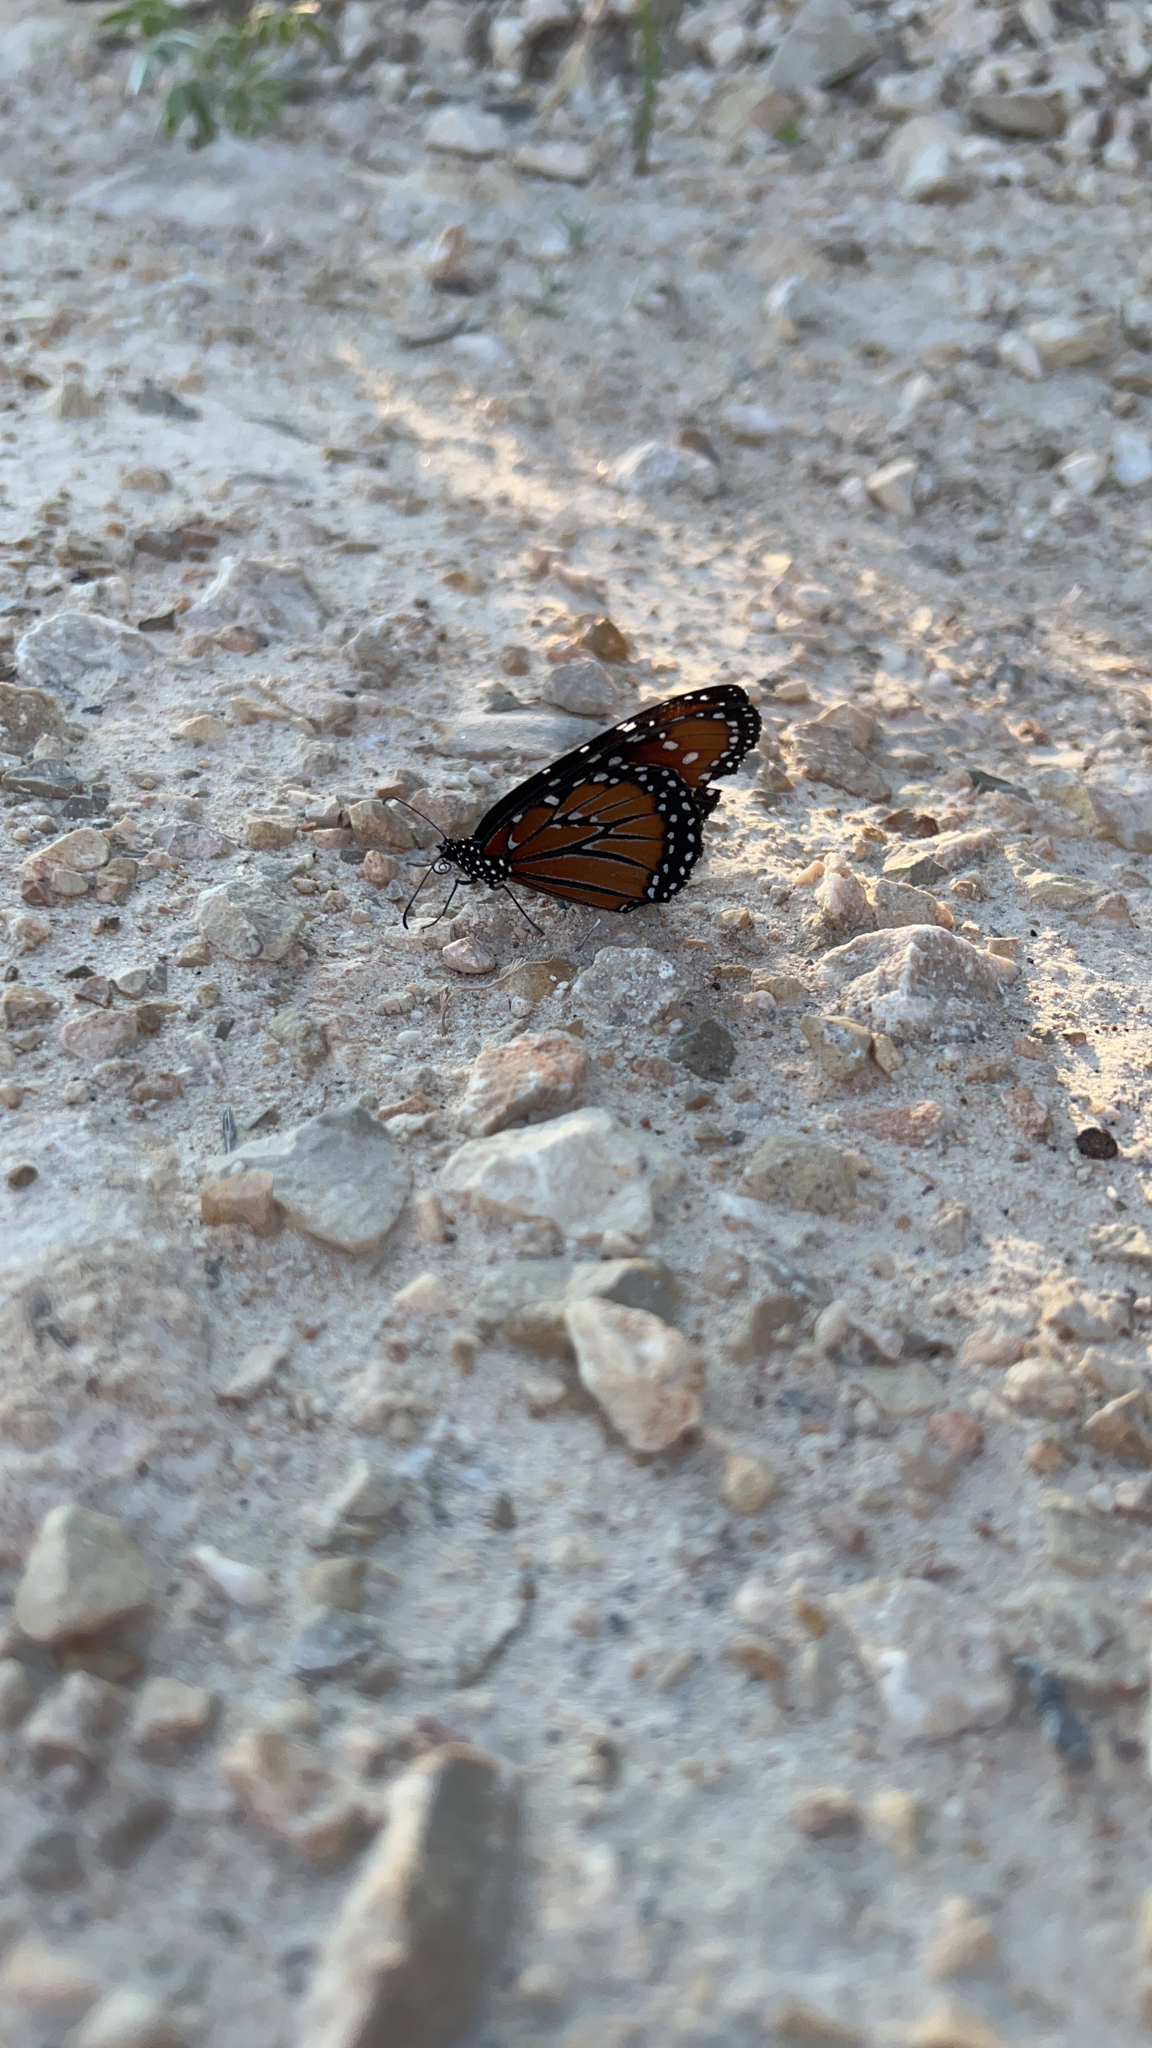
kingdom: Animalia
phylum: Arthropoda
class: Insecta
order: Lepidoptera
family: Nymphalidae
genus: Danaus
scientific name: Danaus gilippus
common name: Queen
